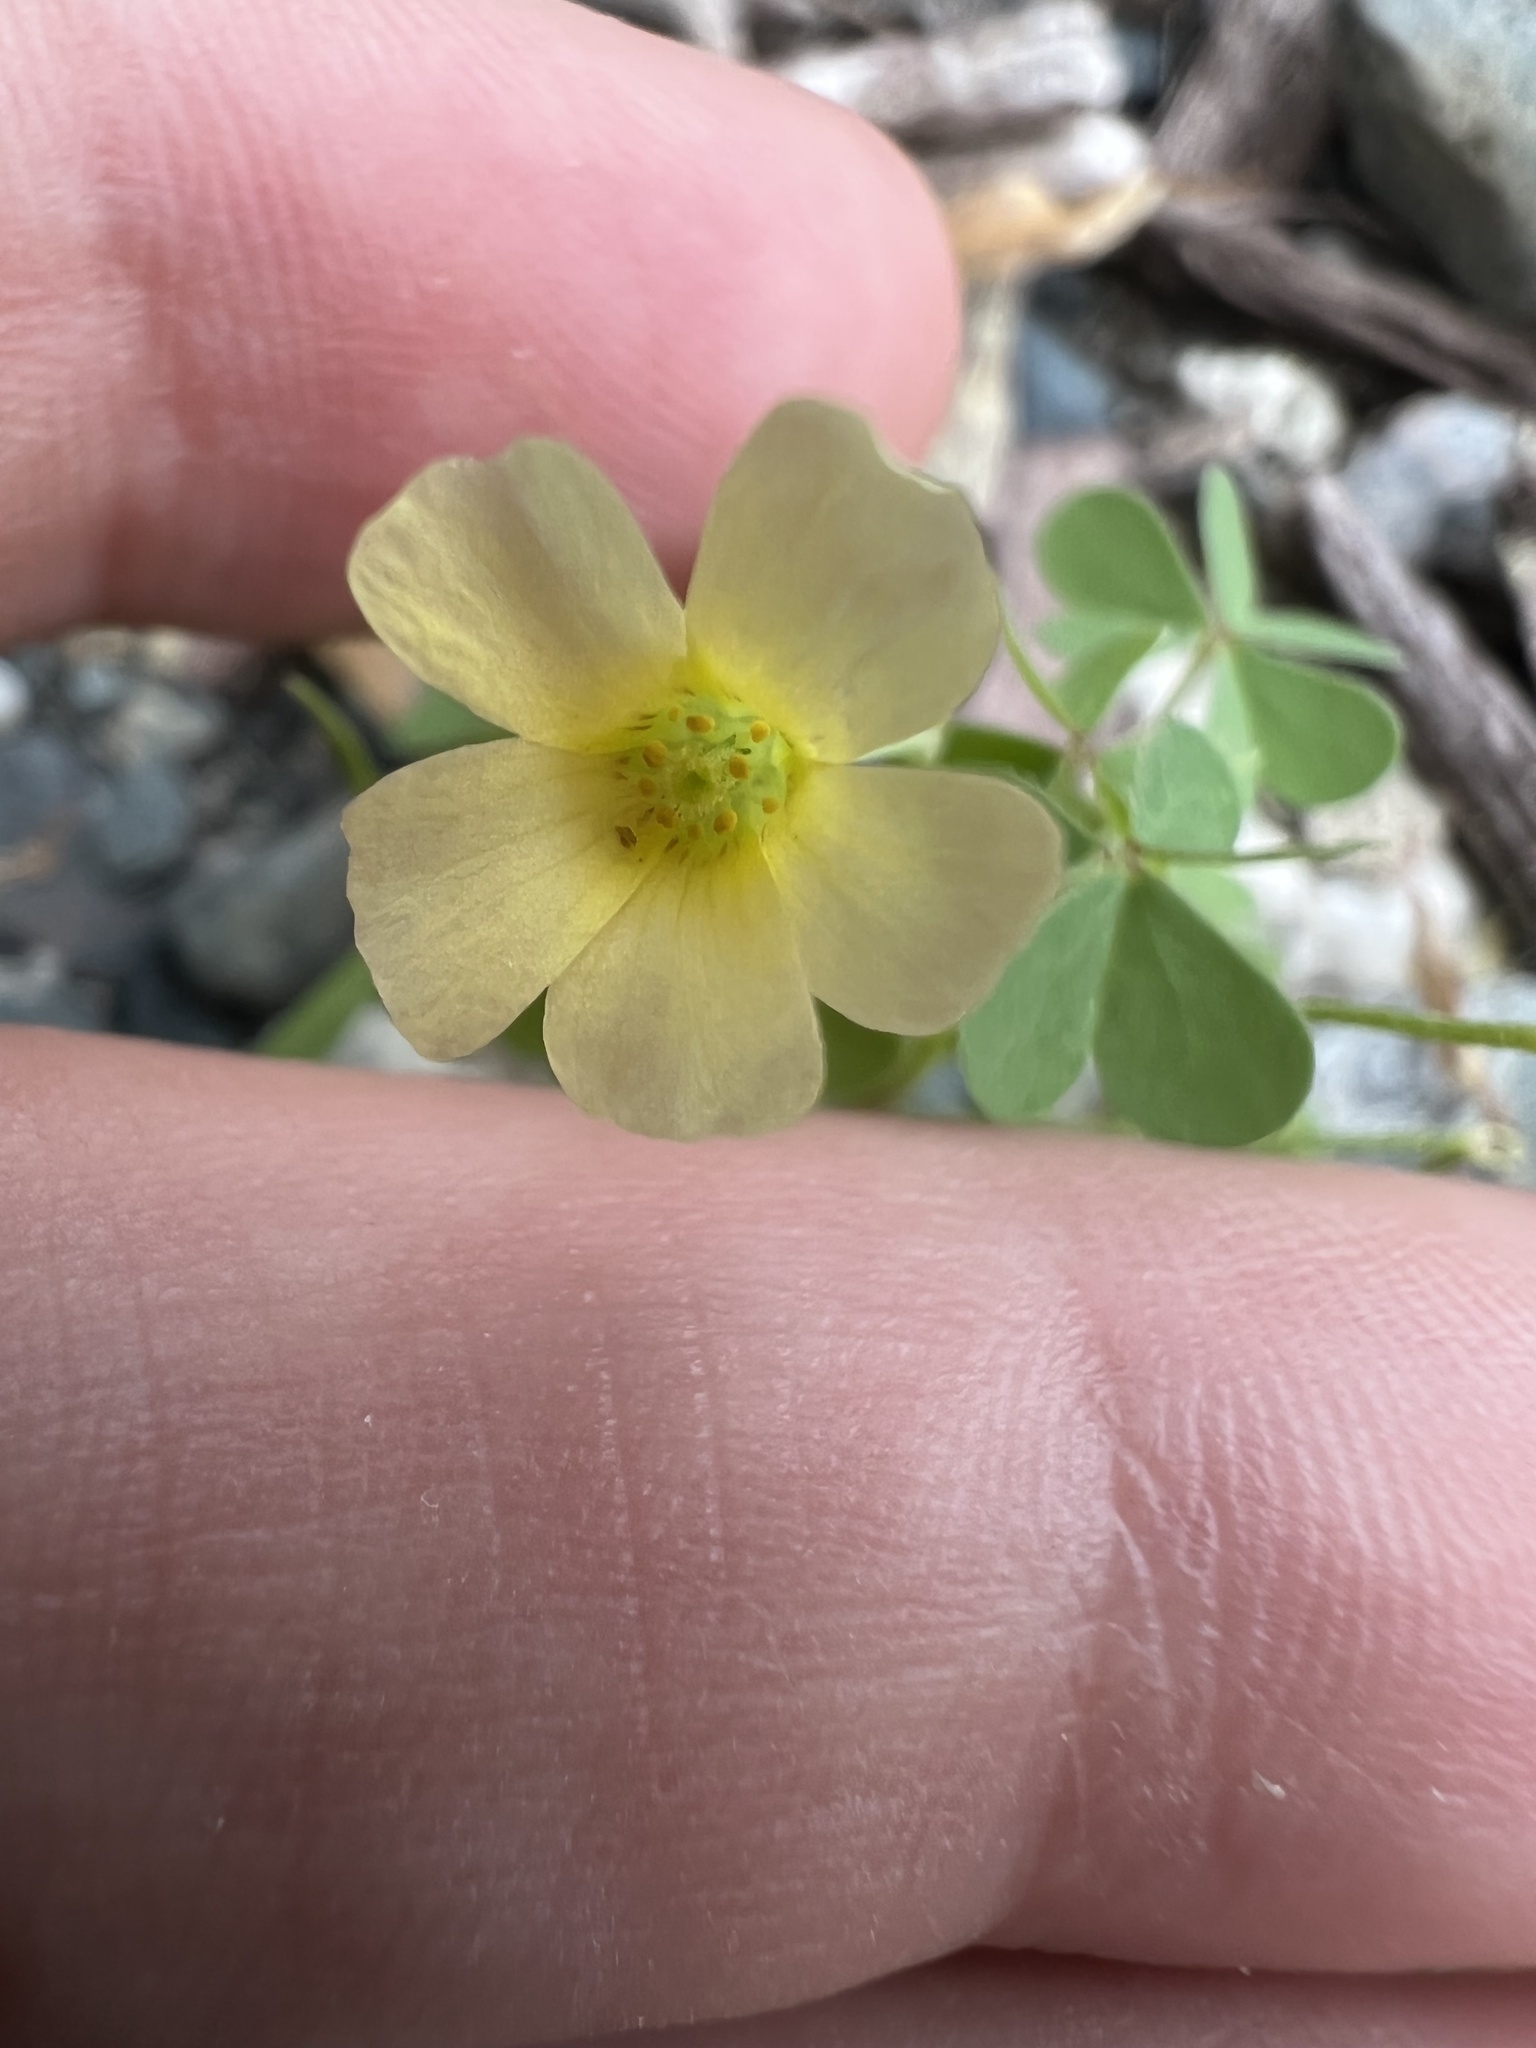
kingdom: Plantae
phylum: Tracheophyta
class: Magnoliopsida
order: Oxalidales
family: Oxalidaceae
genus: Oxalis
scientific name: Oxalis
